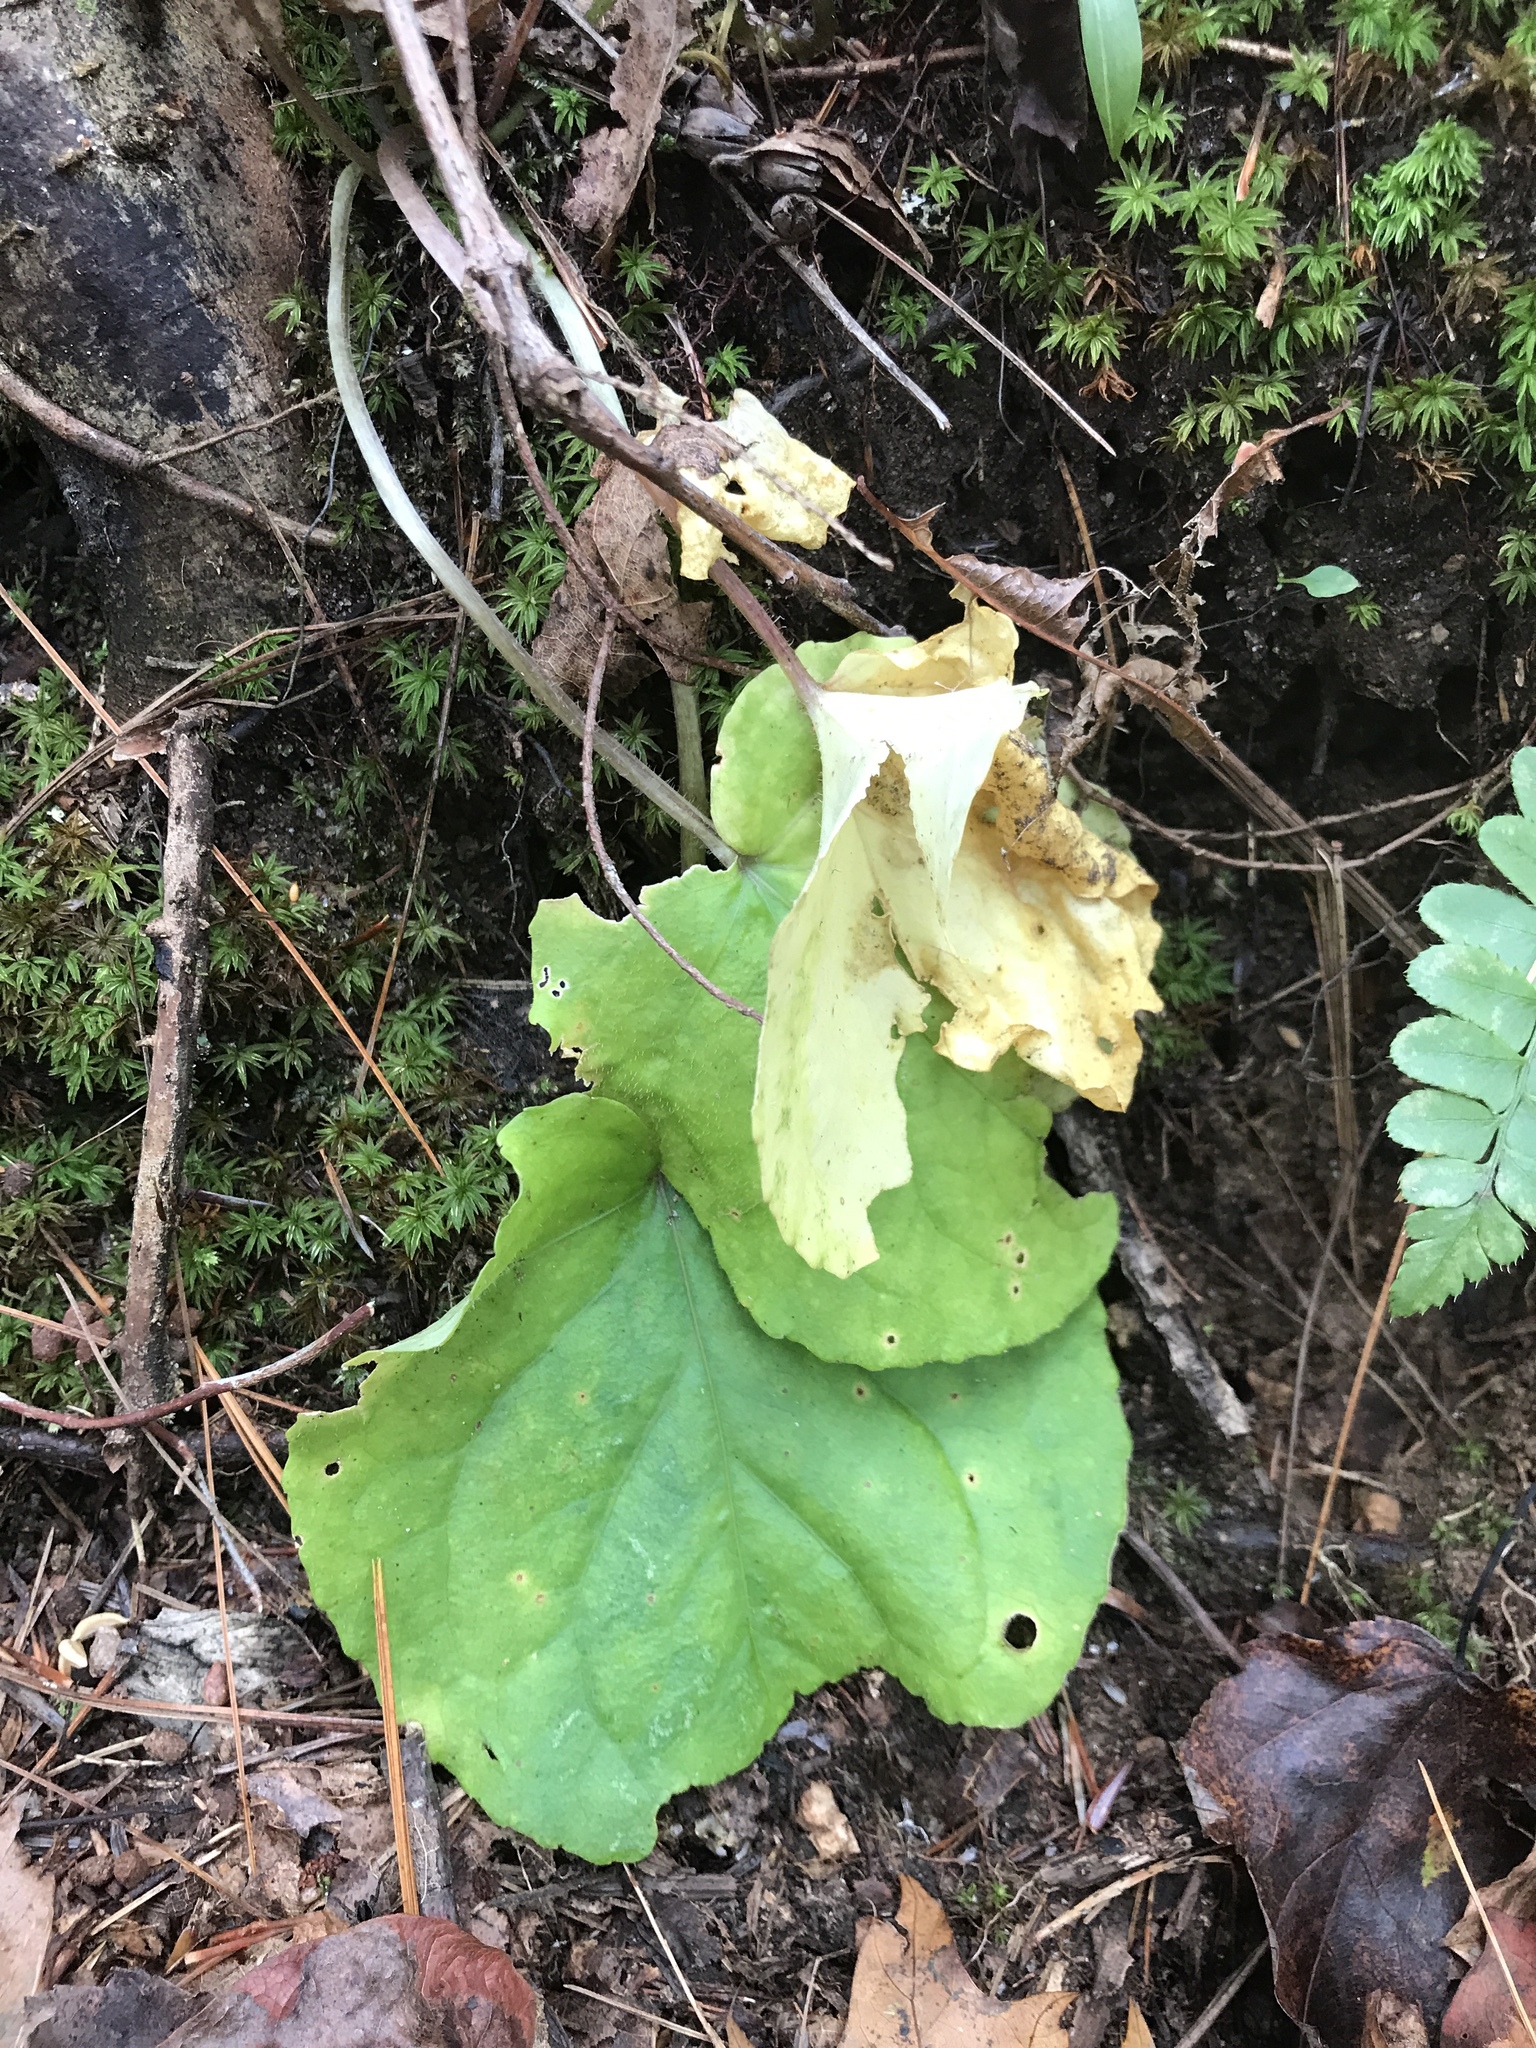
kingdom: Plantae
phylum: Tracheophyta
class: Magnoliopsida
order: Malpighiales
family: Violaceae
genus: Viola
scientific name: Viola rotundifolia
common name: Early yellow violet
